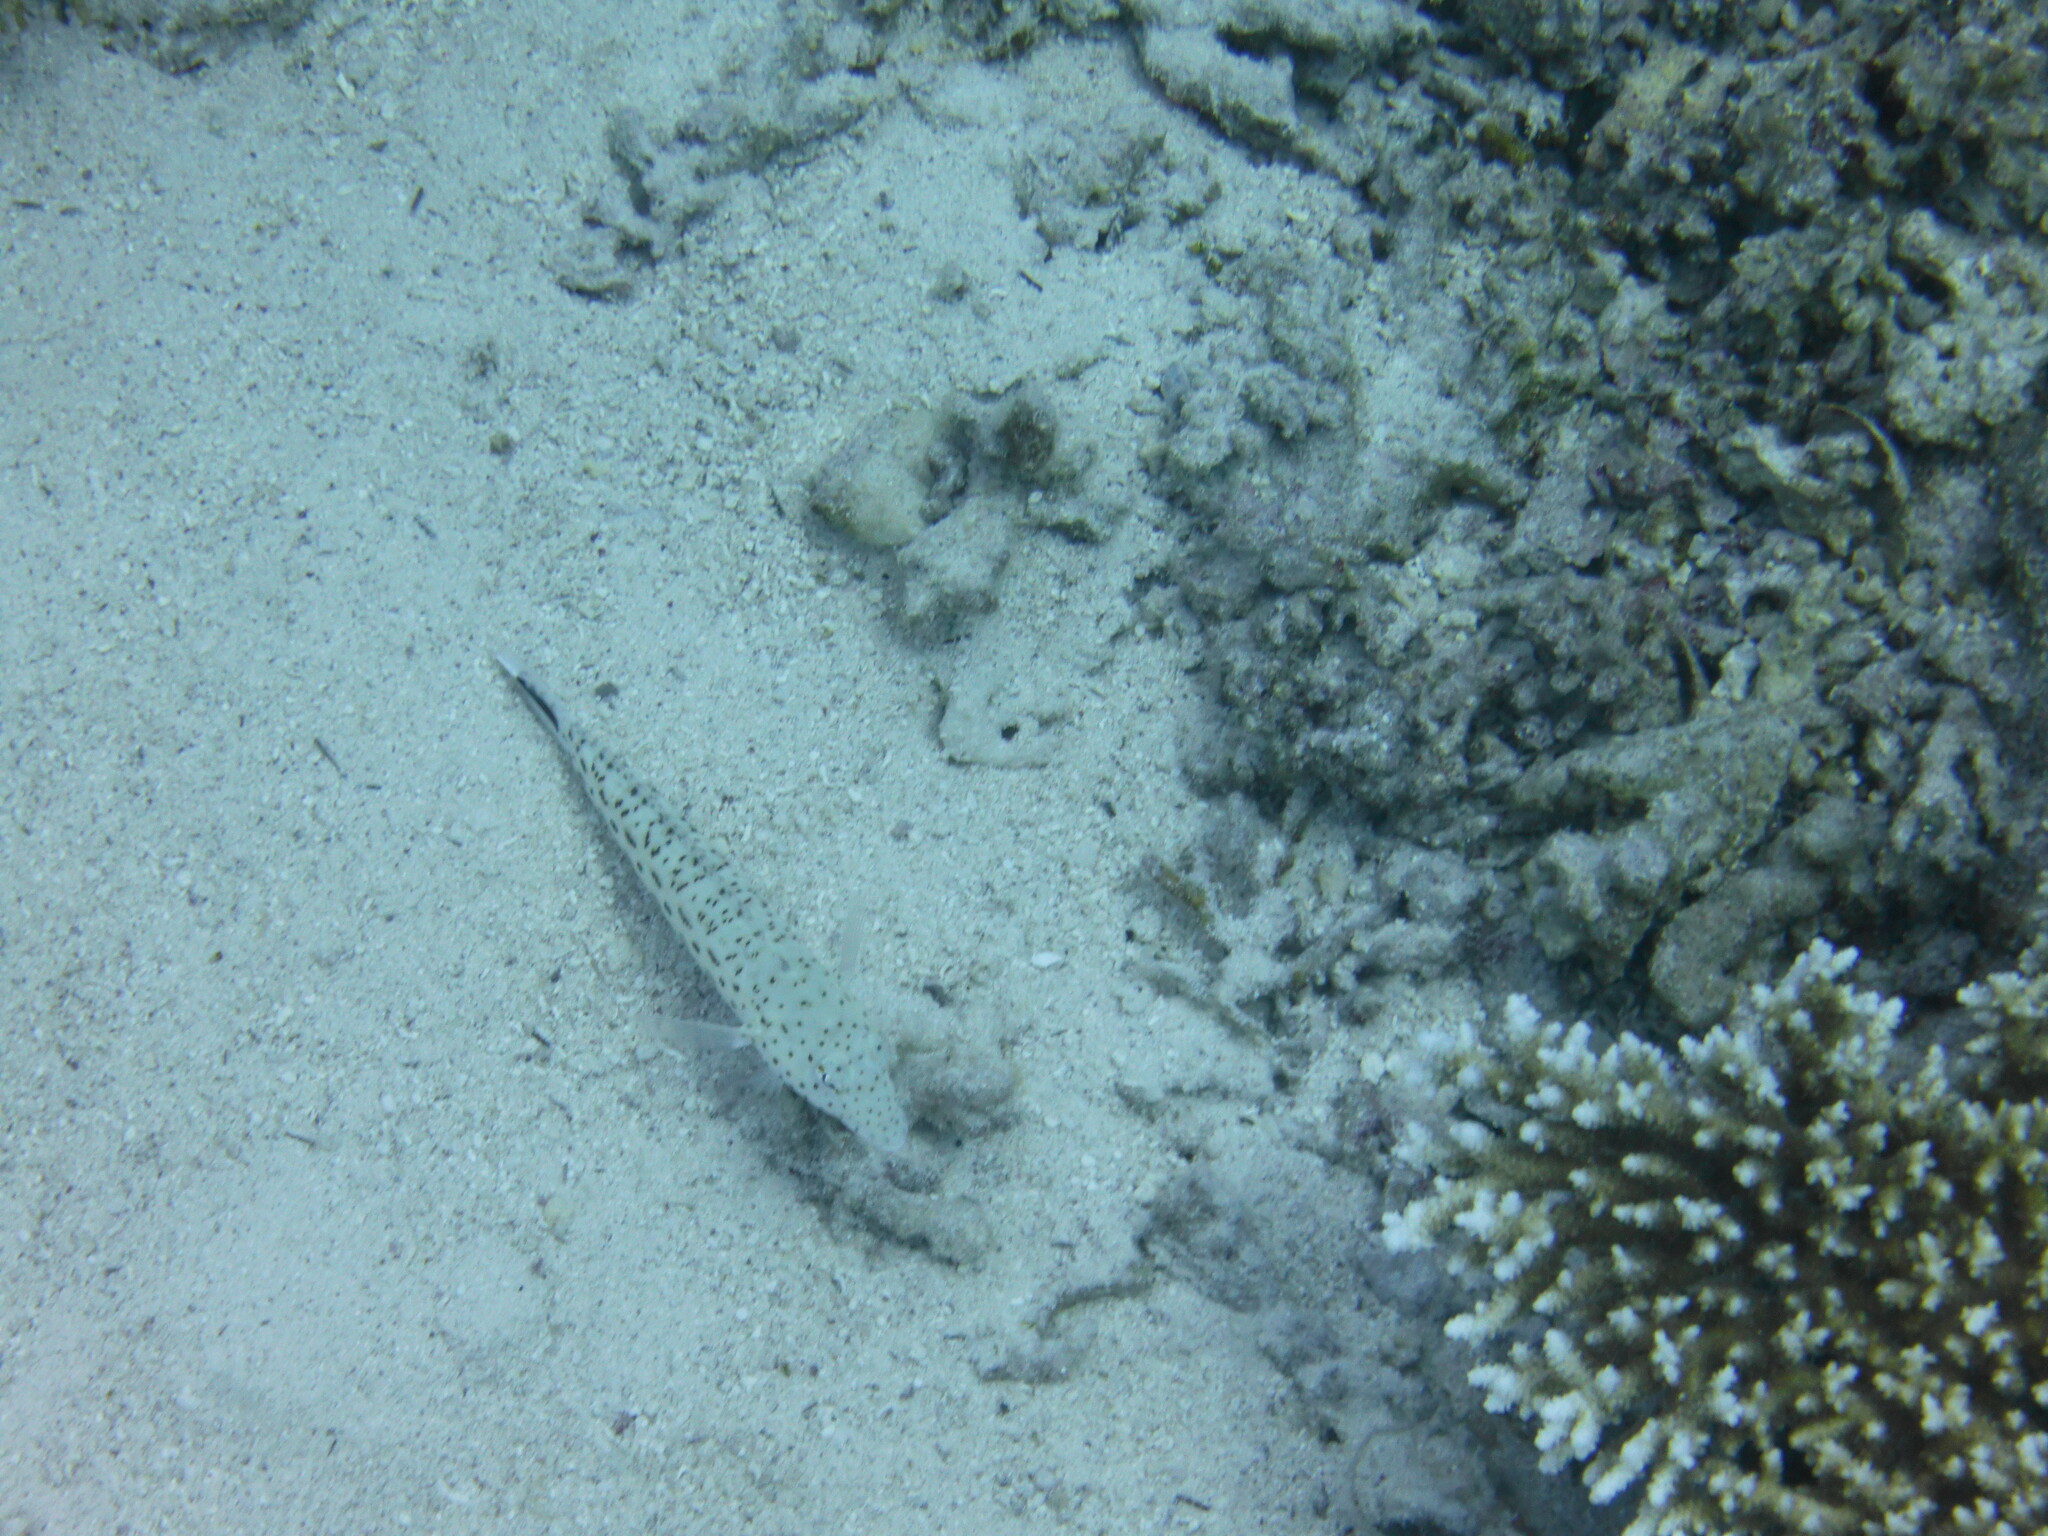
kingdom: Animalia
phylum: Chordata
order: Perciformes
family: Pinguipedidae
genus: Parapercis
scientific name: Parapercis hexophtalma
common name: Speckled sandperch
